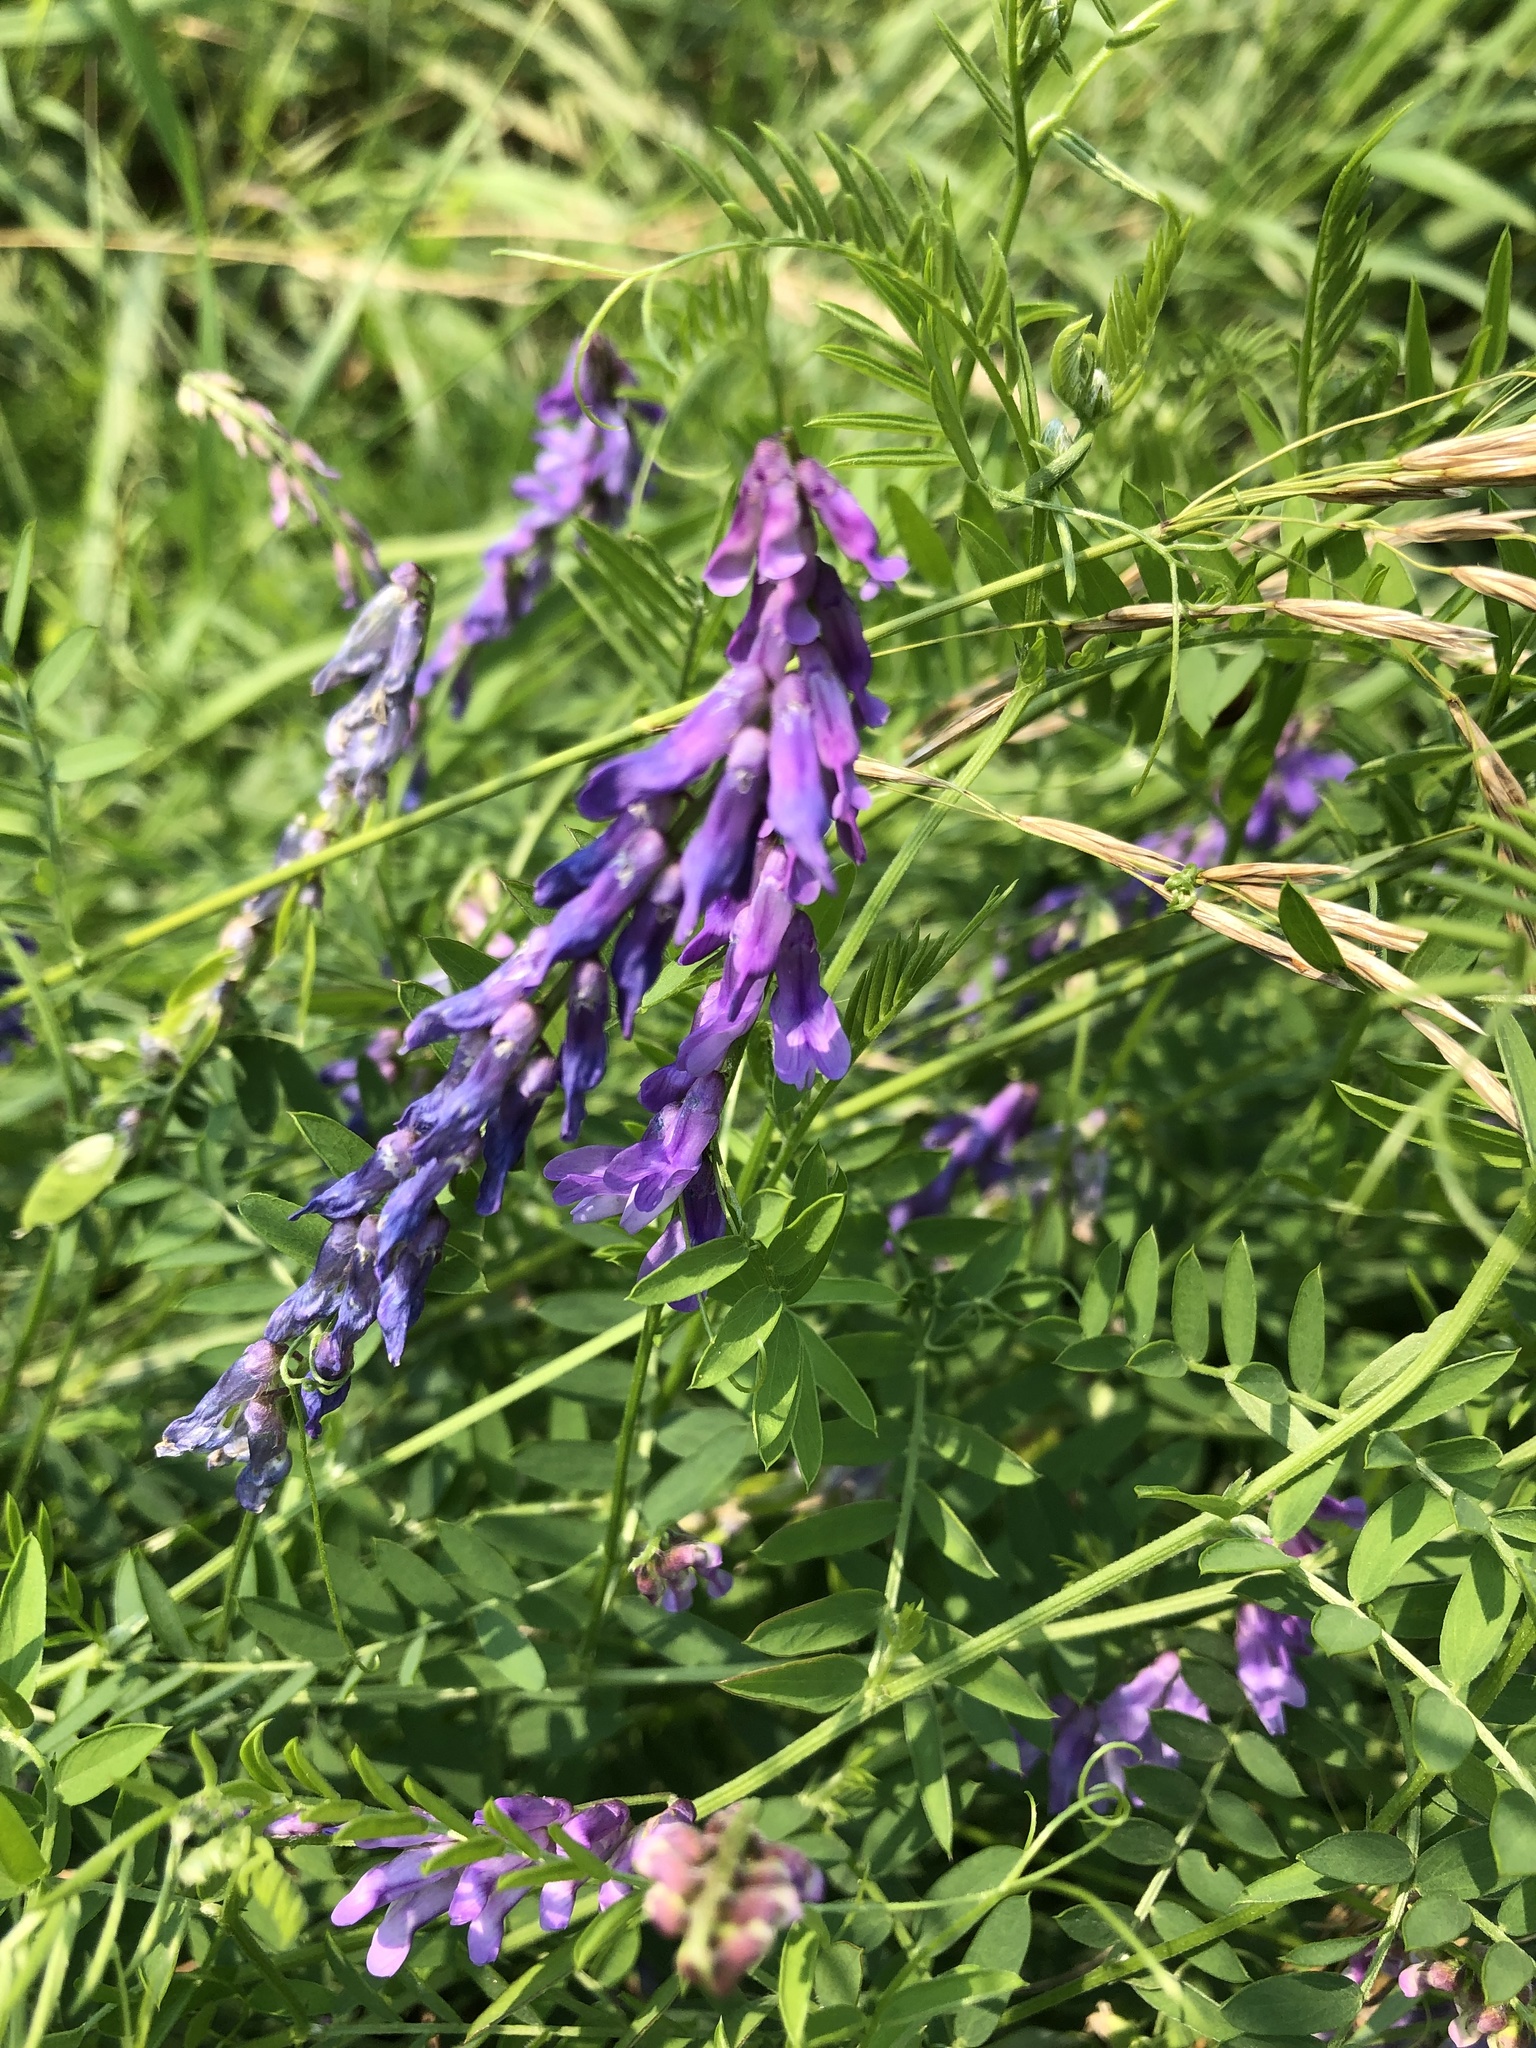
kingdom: Plantae
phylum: Tracheophyta
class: Magnoliopsida
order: Fabales
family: Fabaceae
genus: Vicia
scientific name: Vicia cracca
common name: Bird vetch
